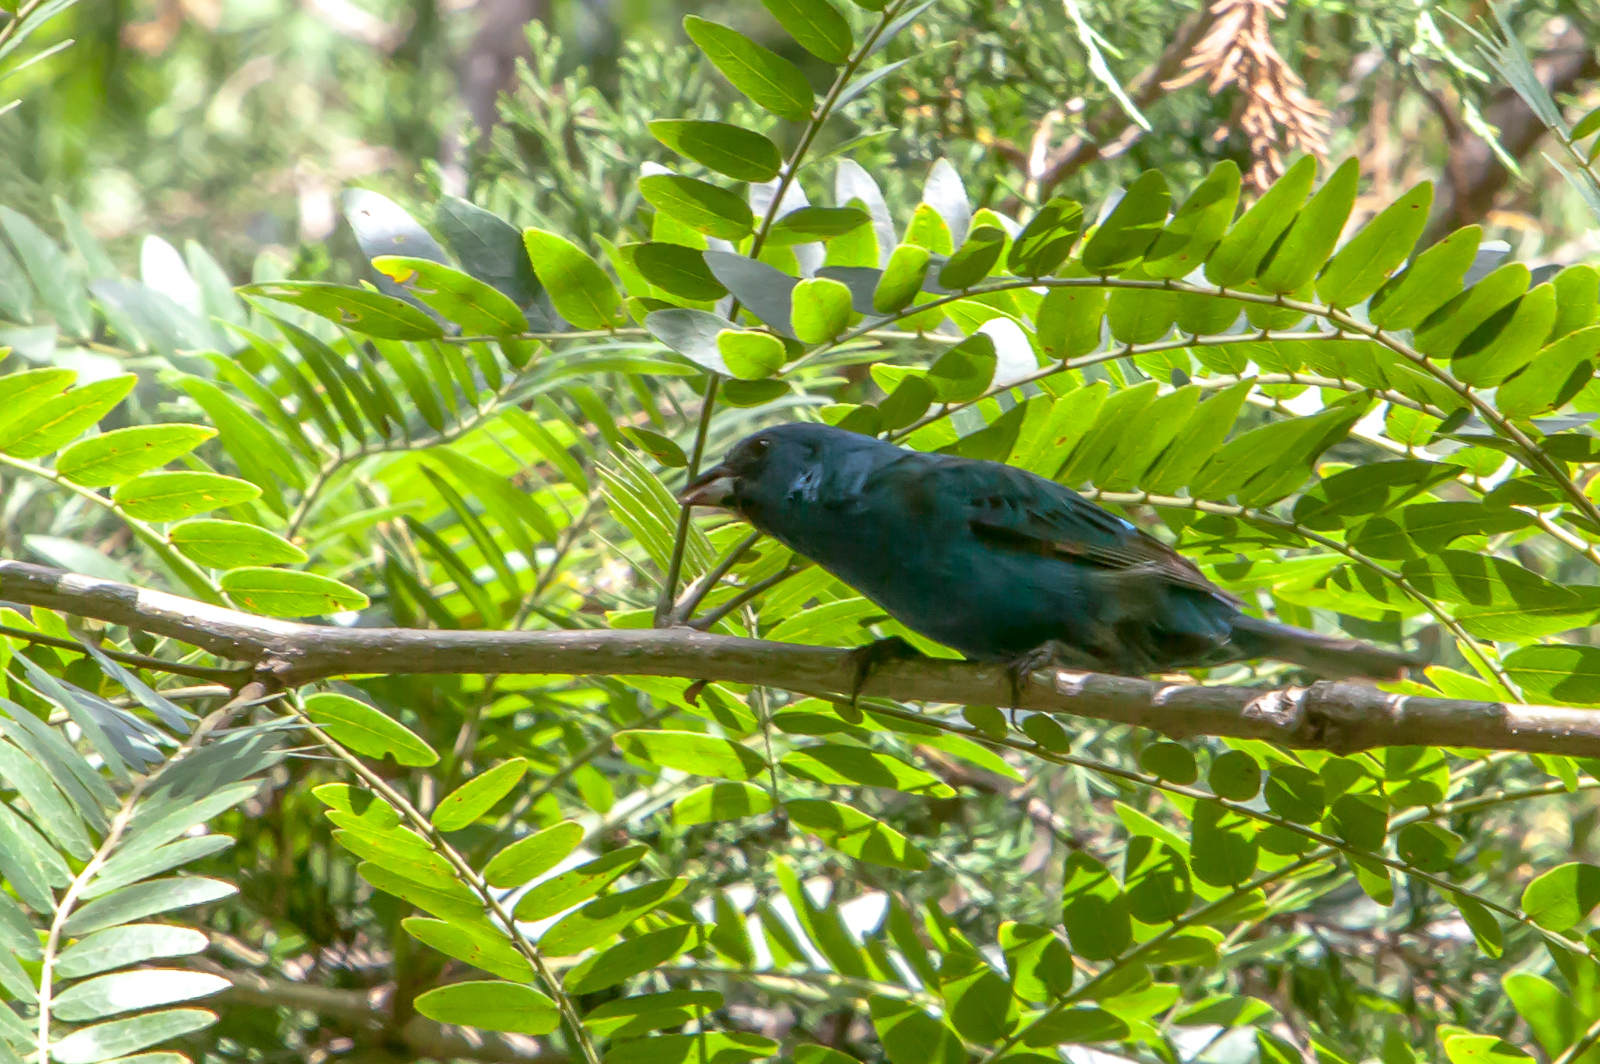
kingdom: Animalia
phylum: Chordata
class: Aves
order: Passeriformes
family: Cardinalidae
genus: Passerina
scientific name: Passerina cyanea
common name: Indigo bunting
